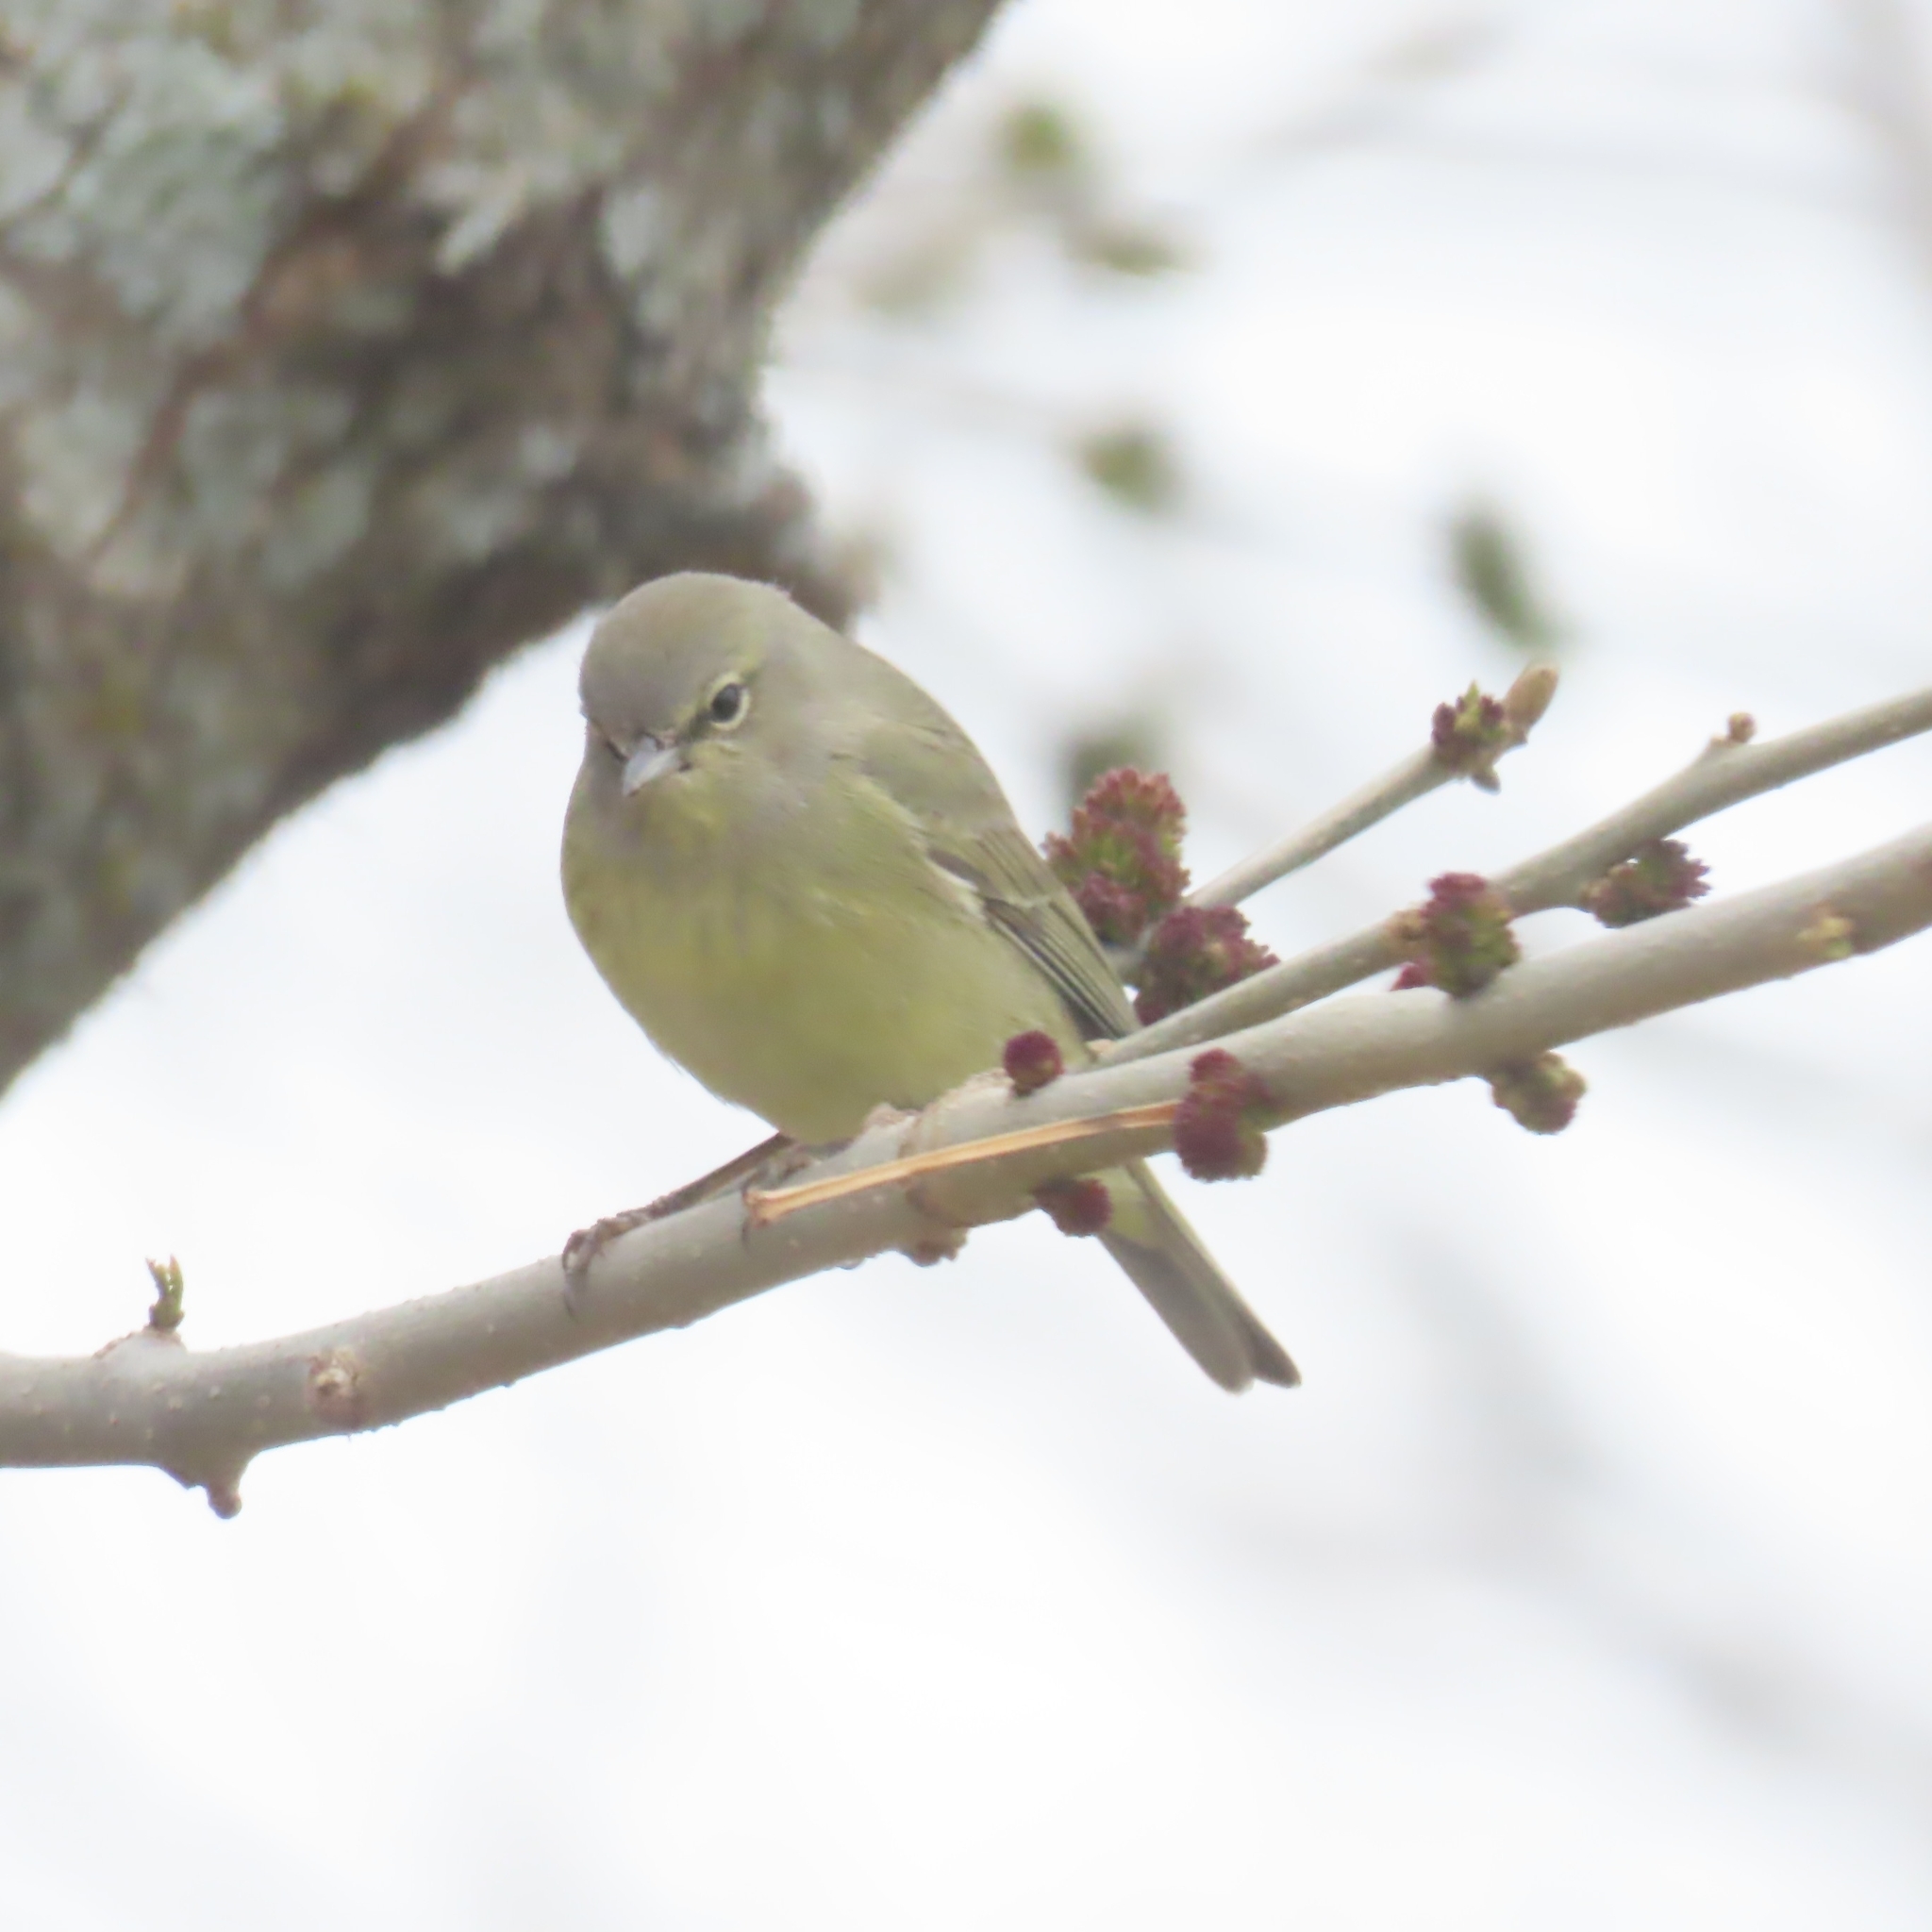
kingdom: Animalia
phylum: Chordata
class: Aves
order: Passeriformes
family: Parulidae
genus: Leiothlypis
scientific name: Leiothlypis celata
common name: Orange-crowned warbler
